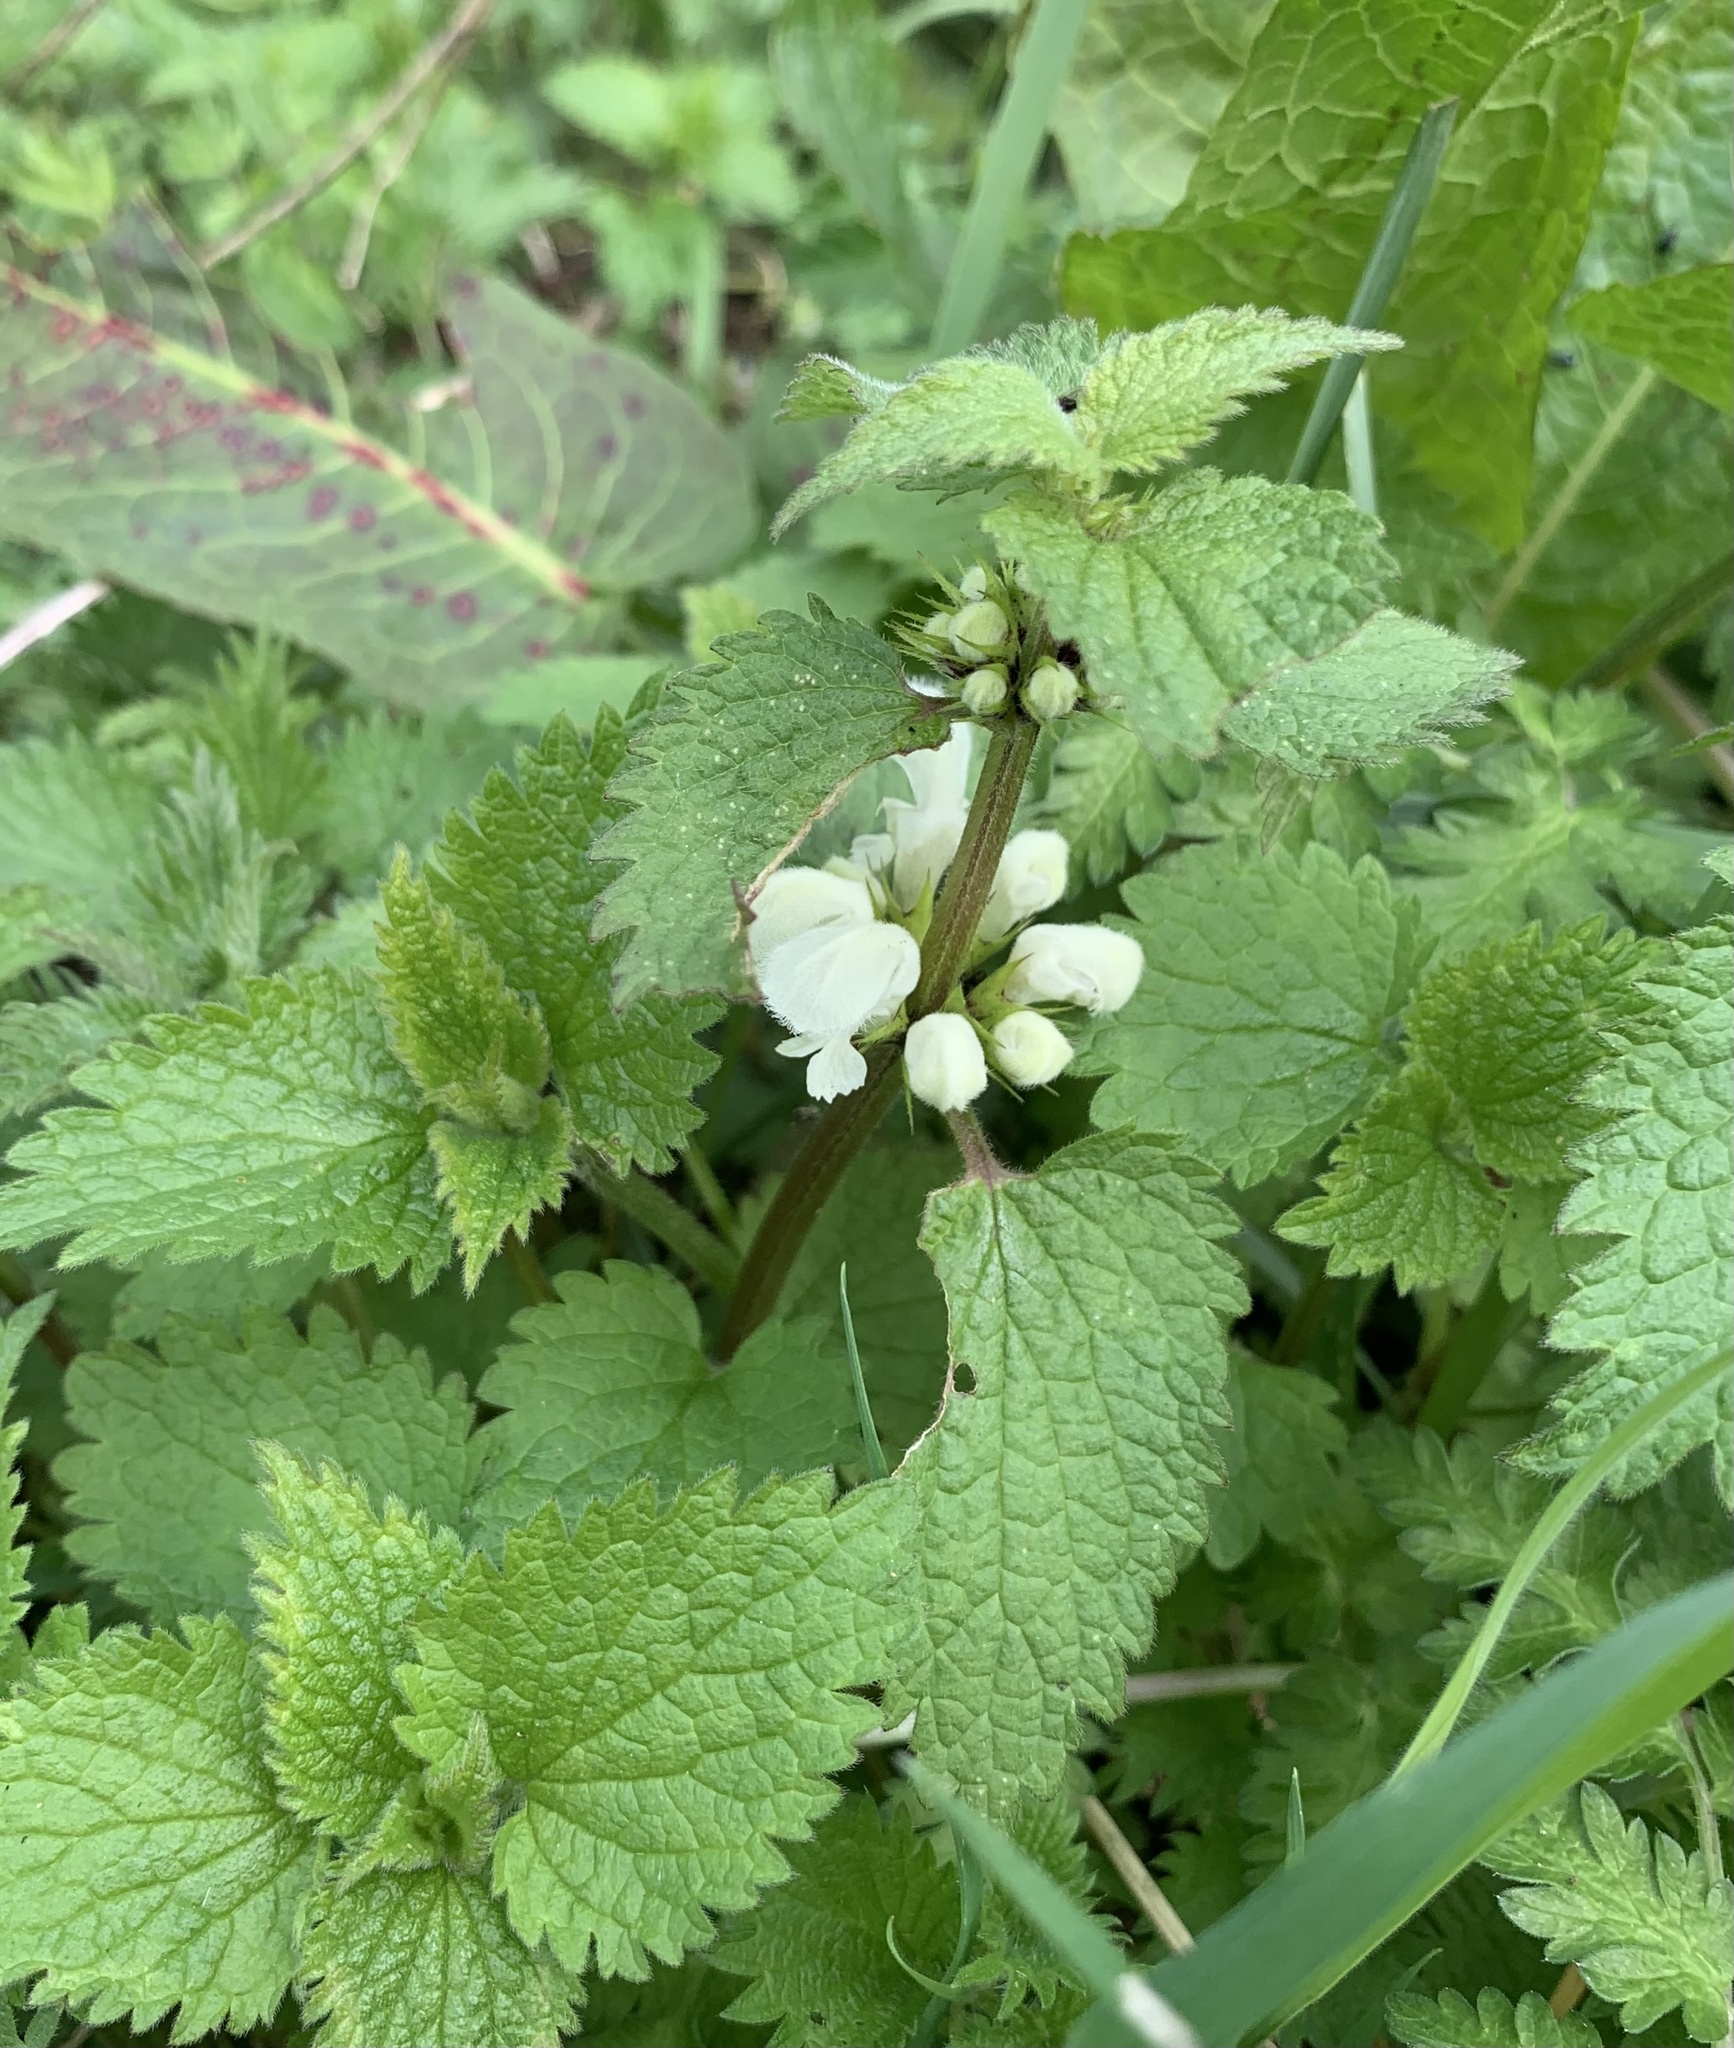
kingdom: Plantae
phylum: Tracheophyta
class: Magnoliopsida
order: Lamiales
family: Lamiaceae
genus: Lamium
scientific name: Lamium album
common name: White dead-nettle
